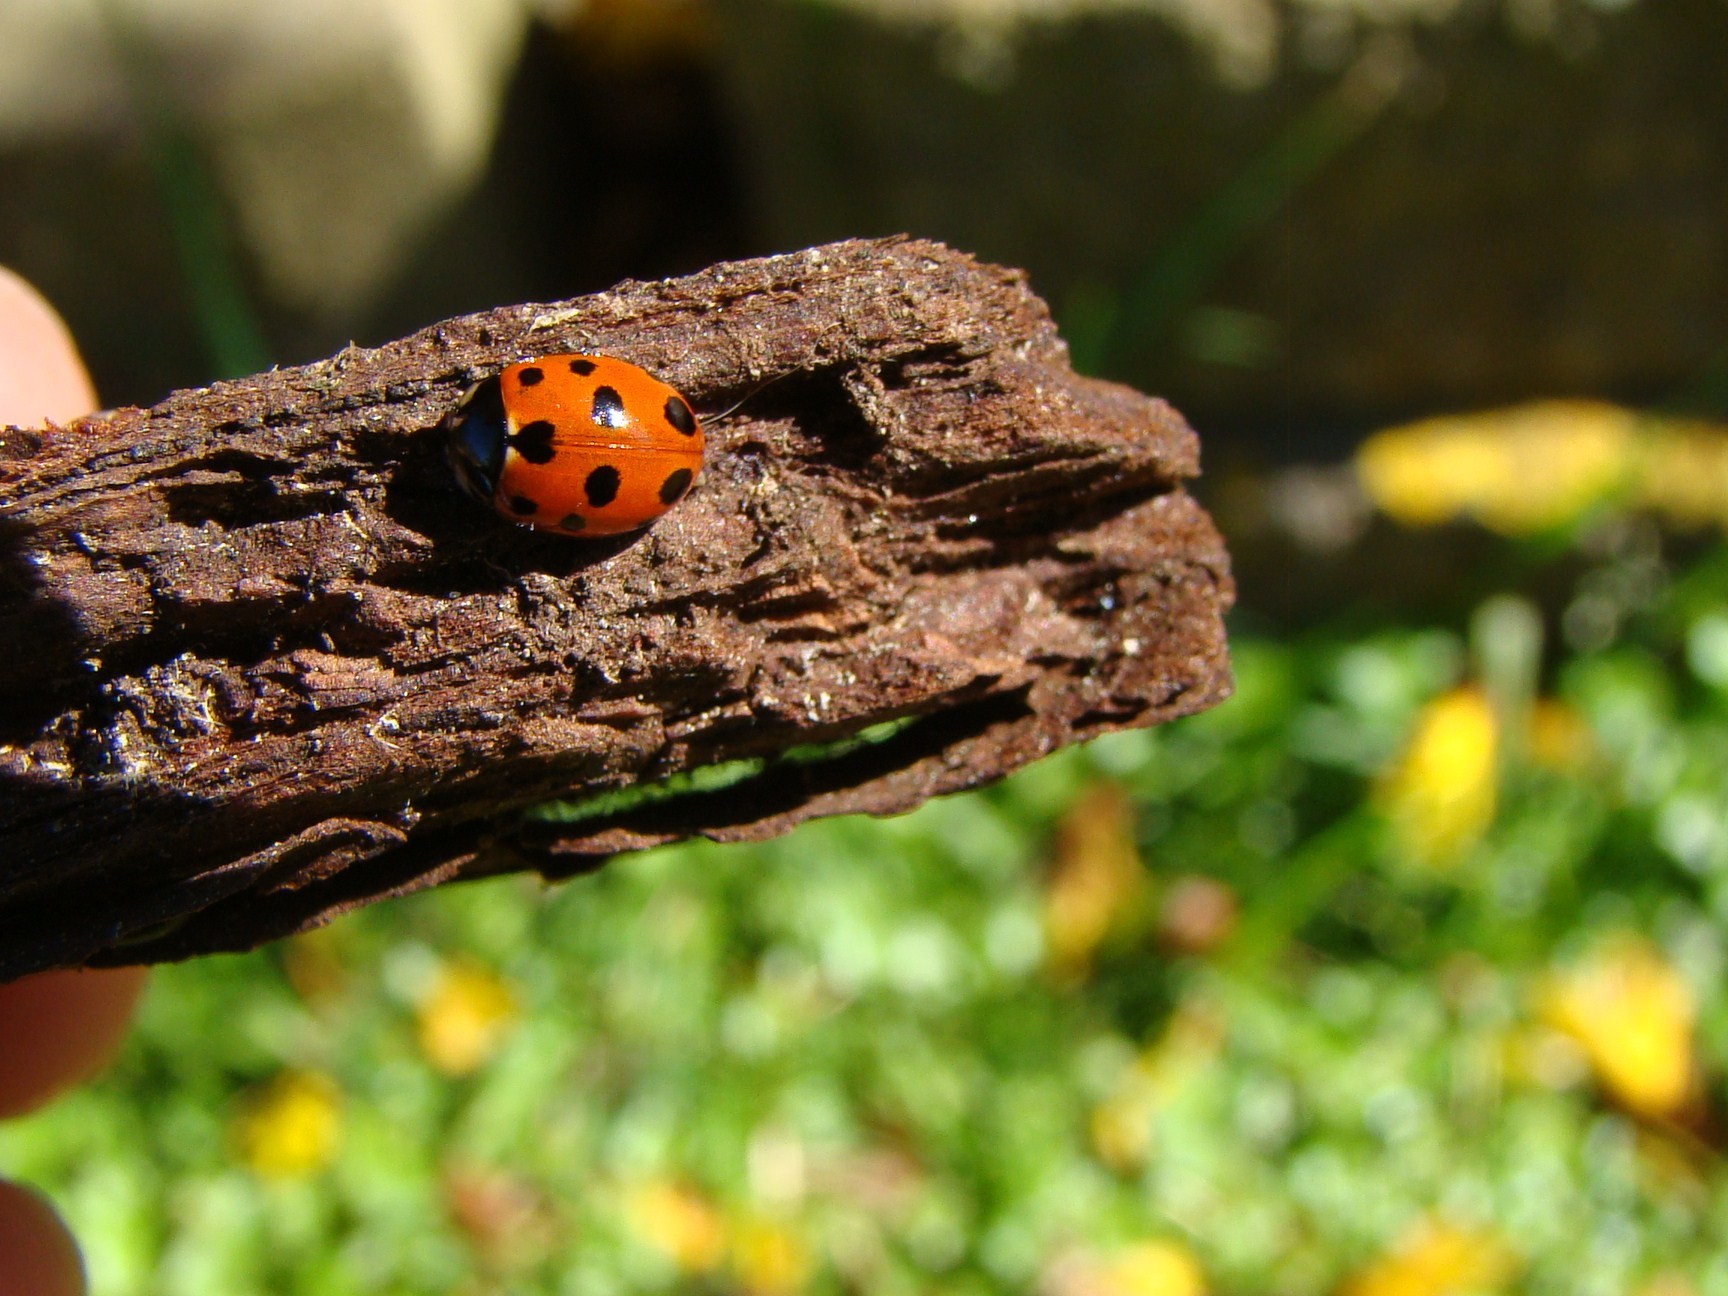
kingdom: Animalia
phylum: Arthropoda
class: Insecta
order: Coleoptera
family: Coccinellidae
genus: Coccinella
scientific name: Coccinella undecimpunctata
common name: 11-spot ladybird
